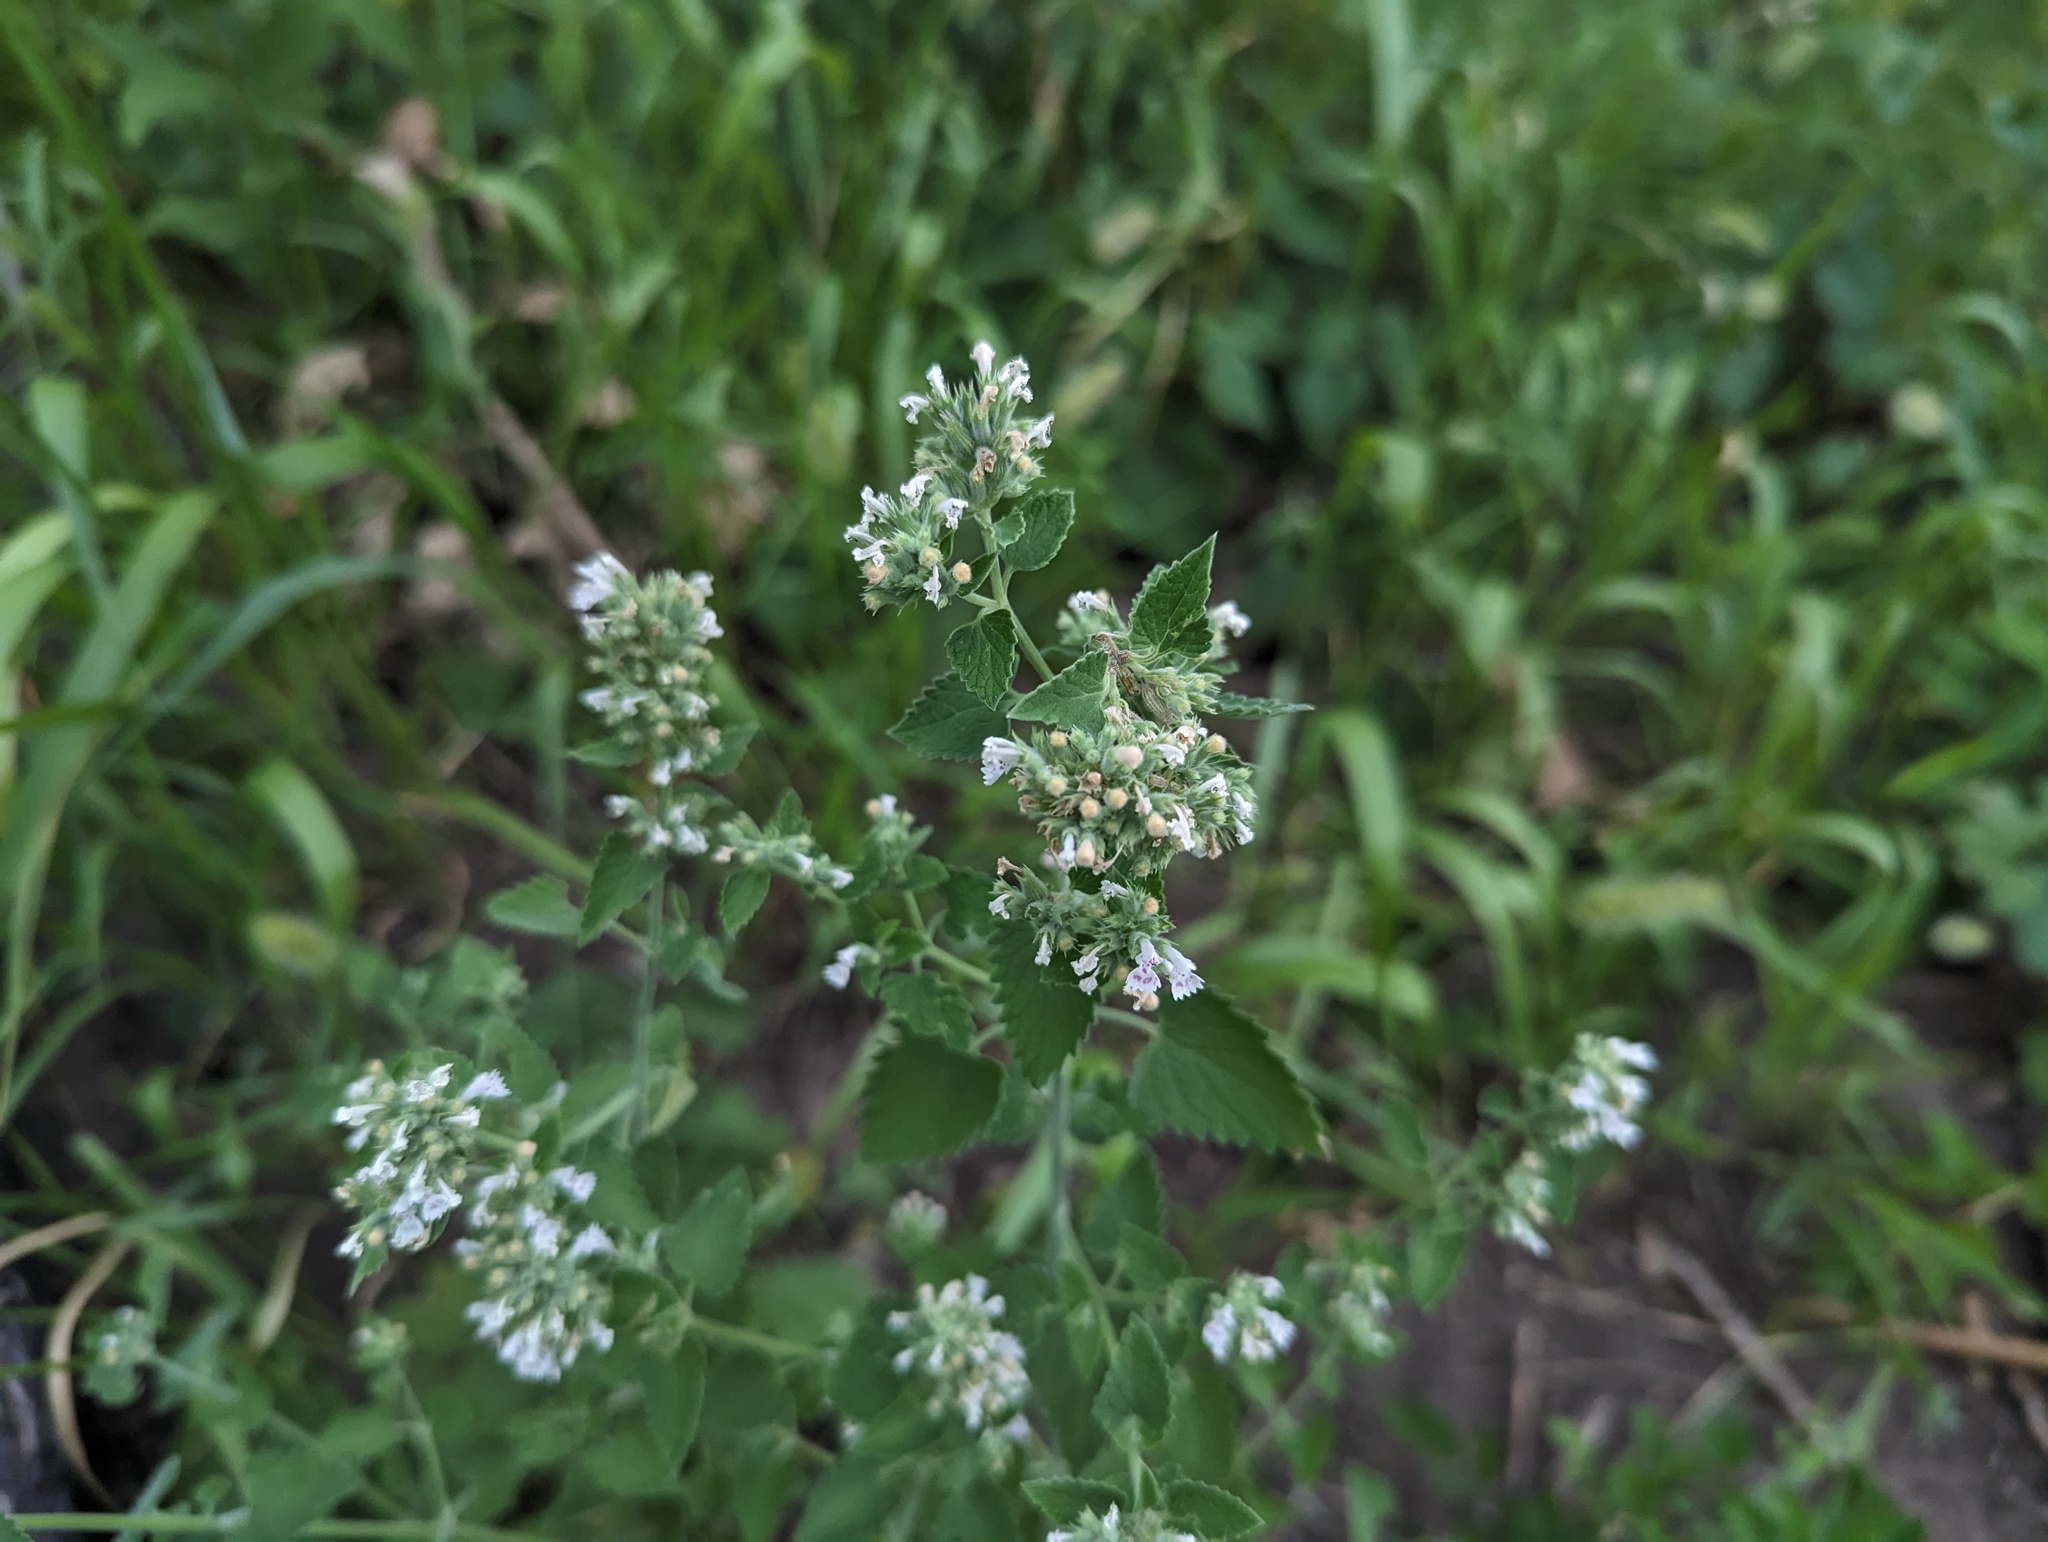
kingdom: Plantae
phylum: Tracheophyta
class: Magnoliopsida
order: Lamiales
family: Lamiaceae
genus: Nepeta
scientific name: Nepeta cataria
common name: Catnip
